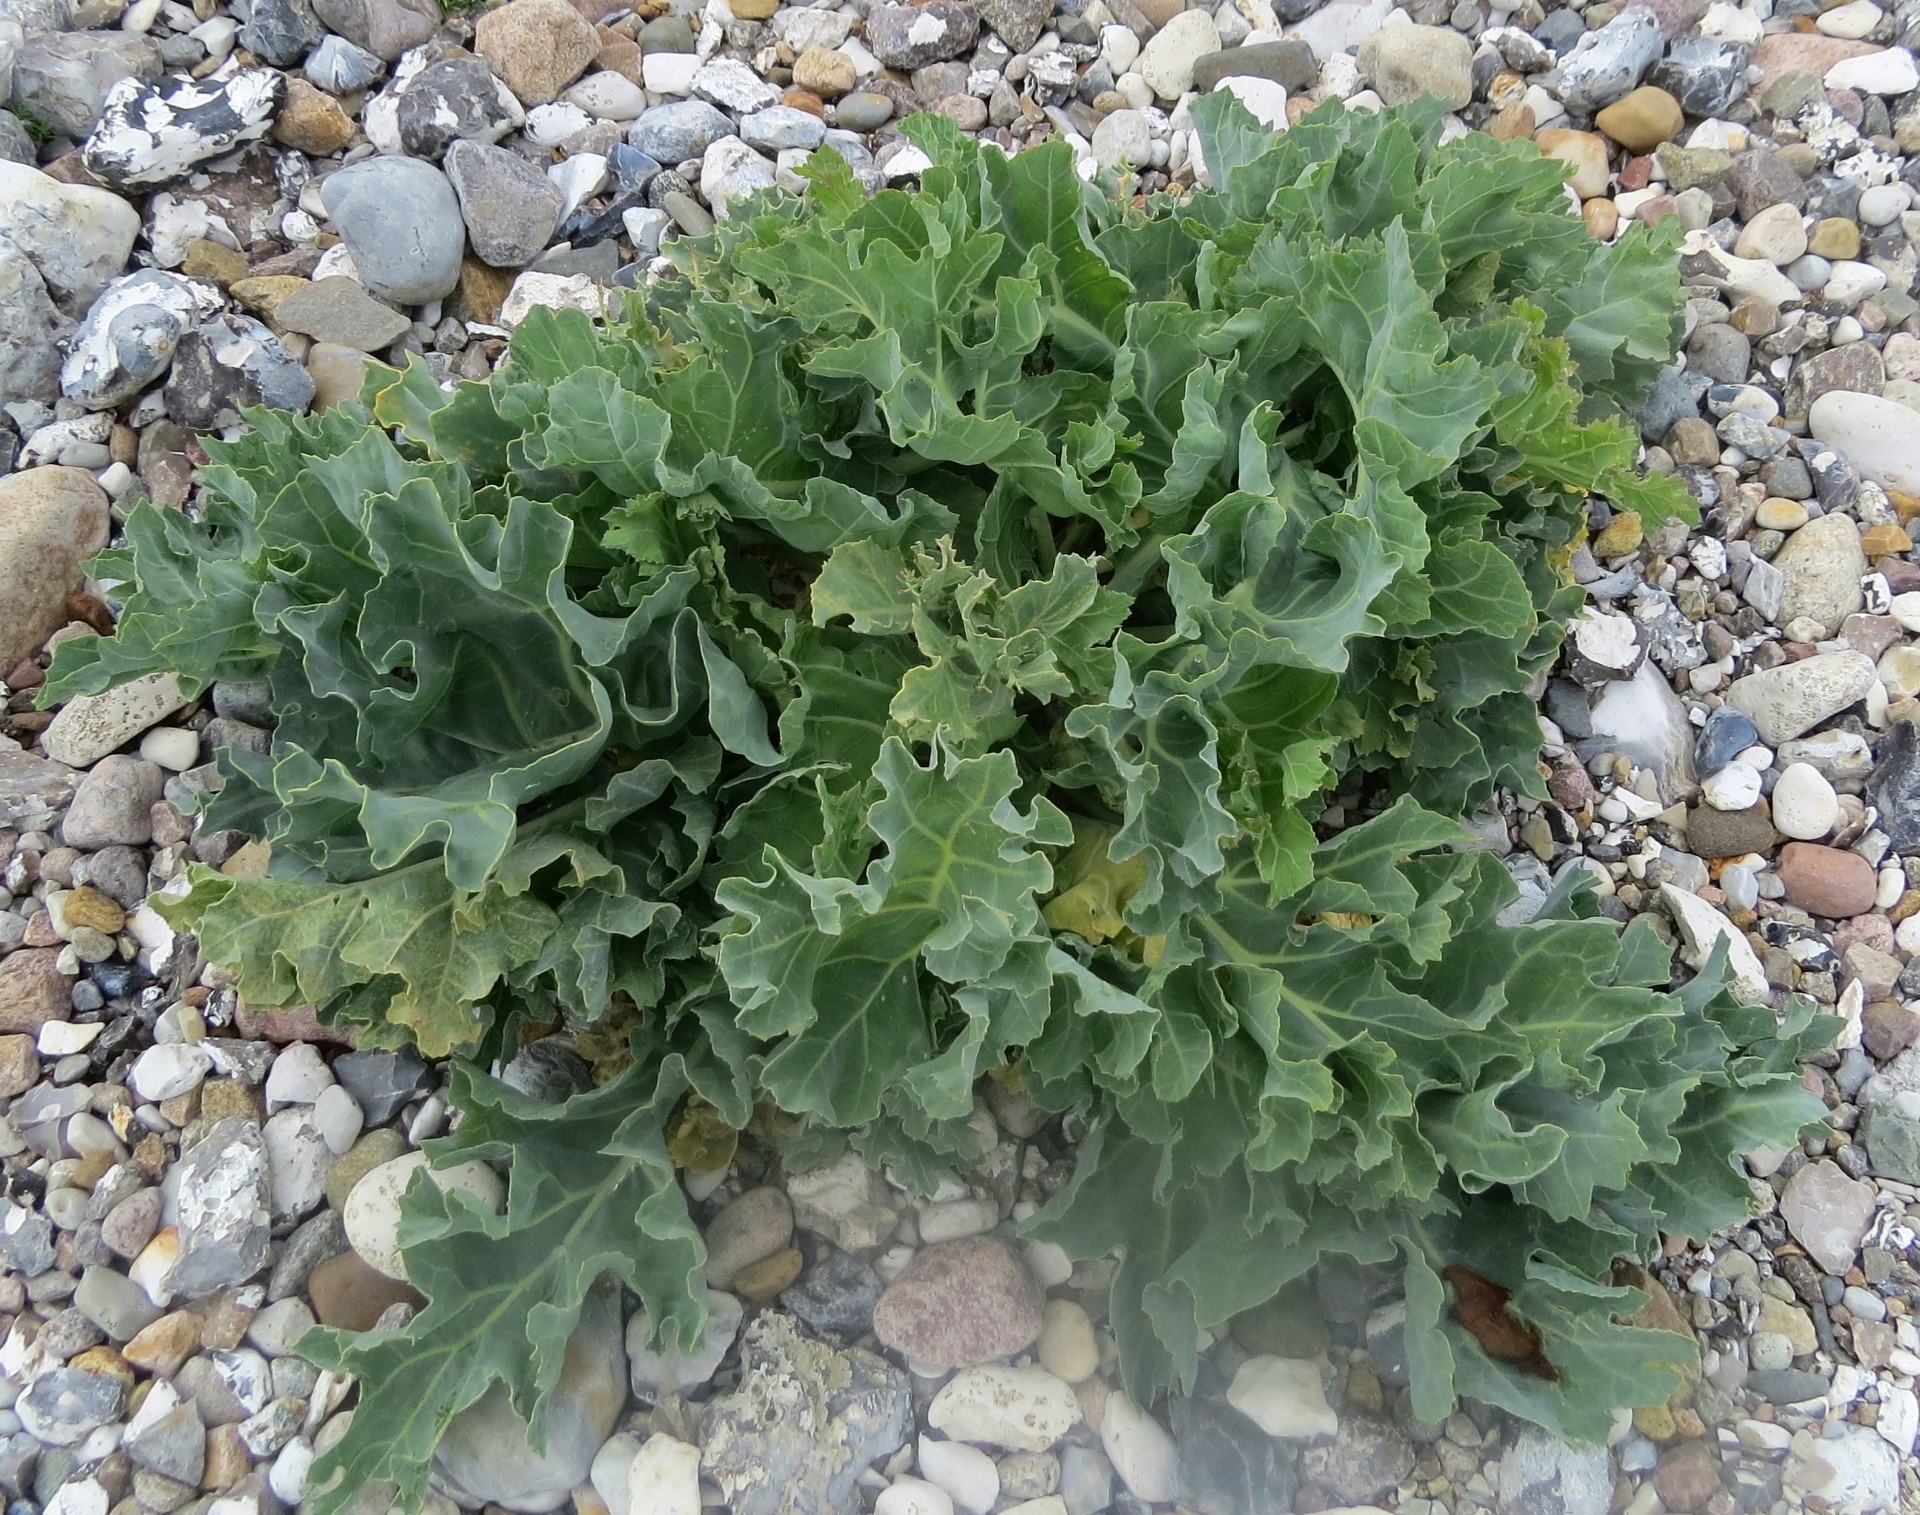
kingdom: Plantae
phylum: Tracheophyta
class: Magnoliopsida
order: Brassicales
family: Brassicaceae
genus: Crambe
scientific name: Crambe maritima
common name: Sea-kale
